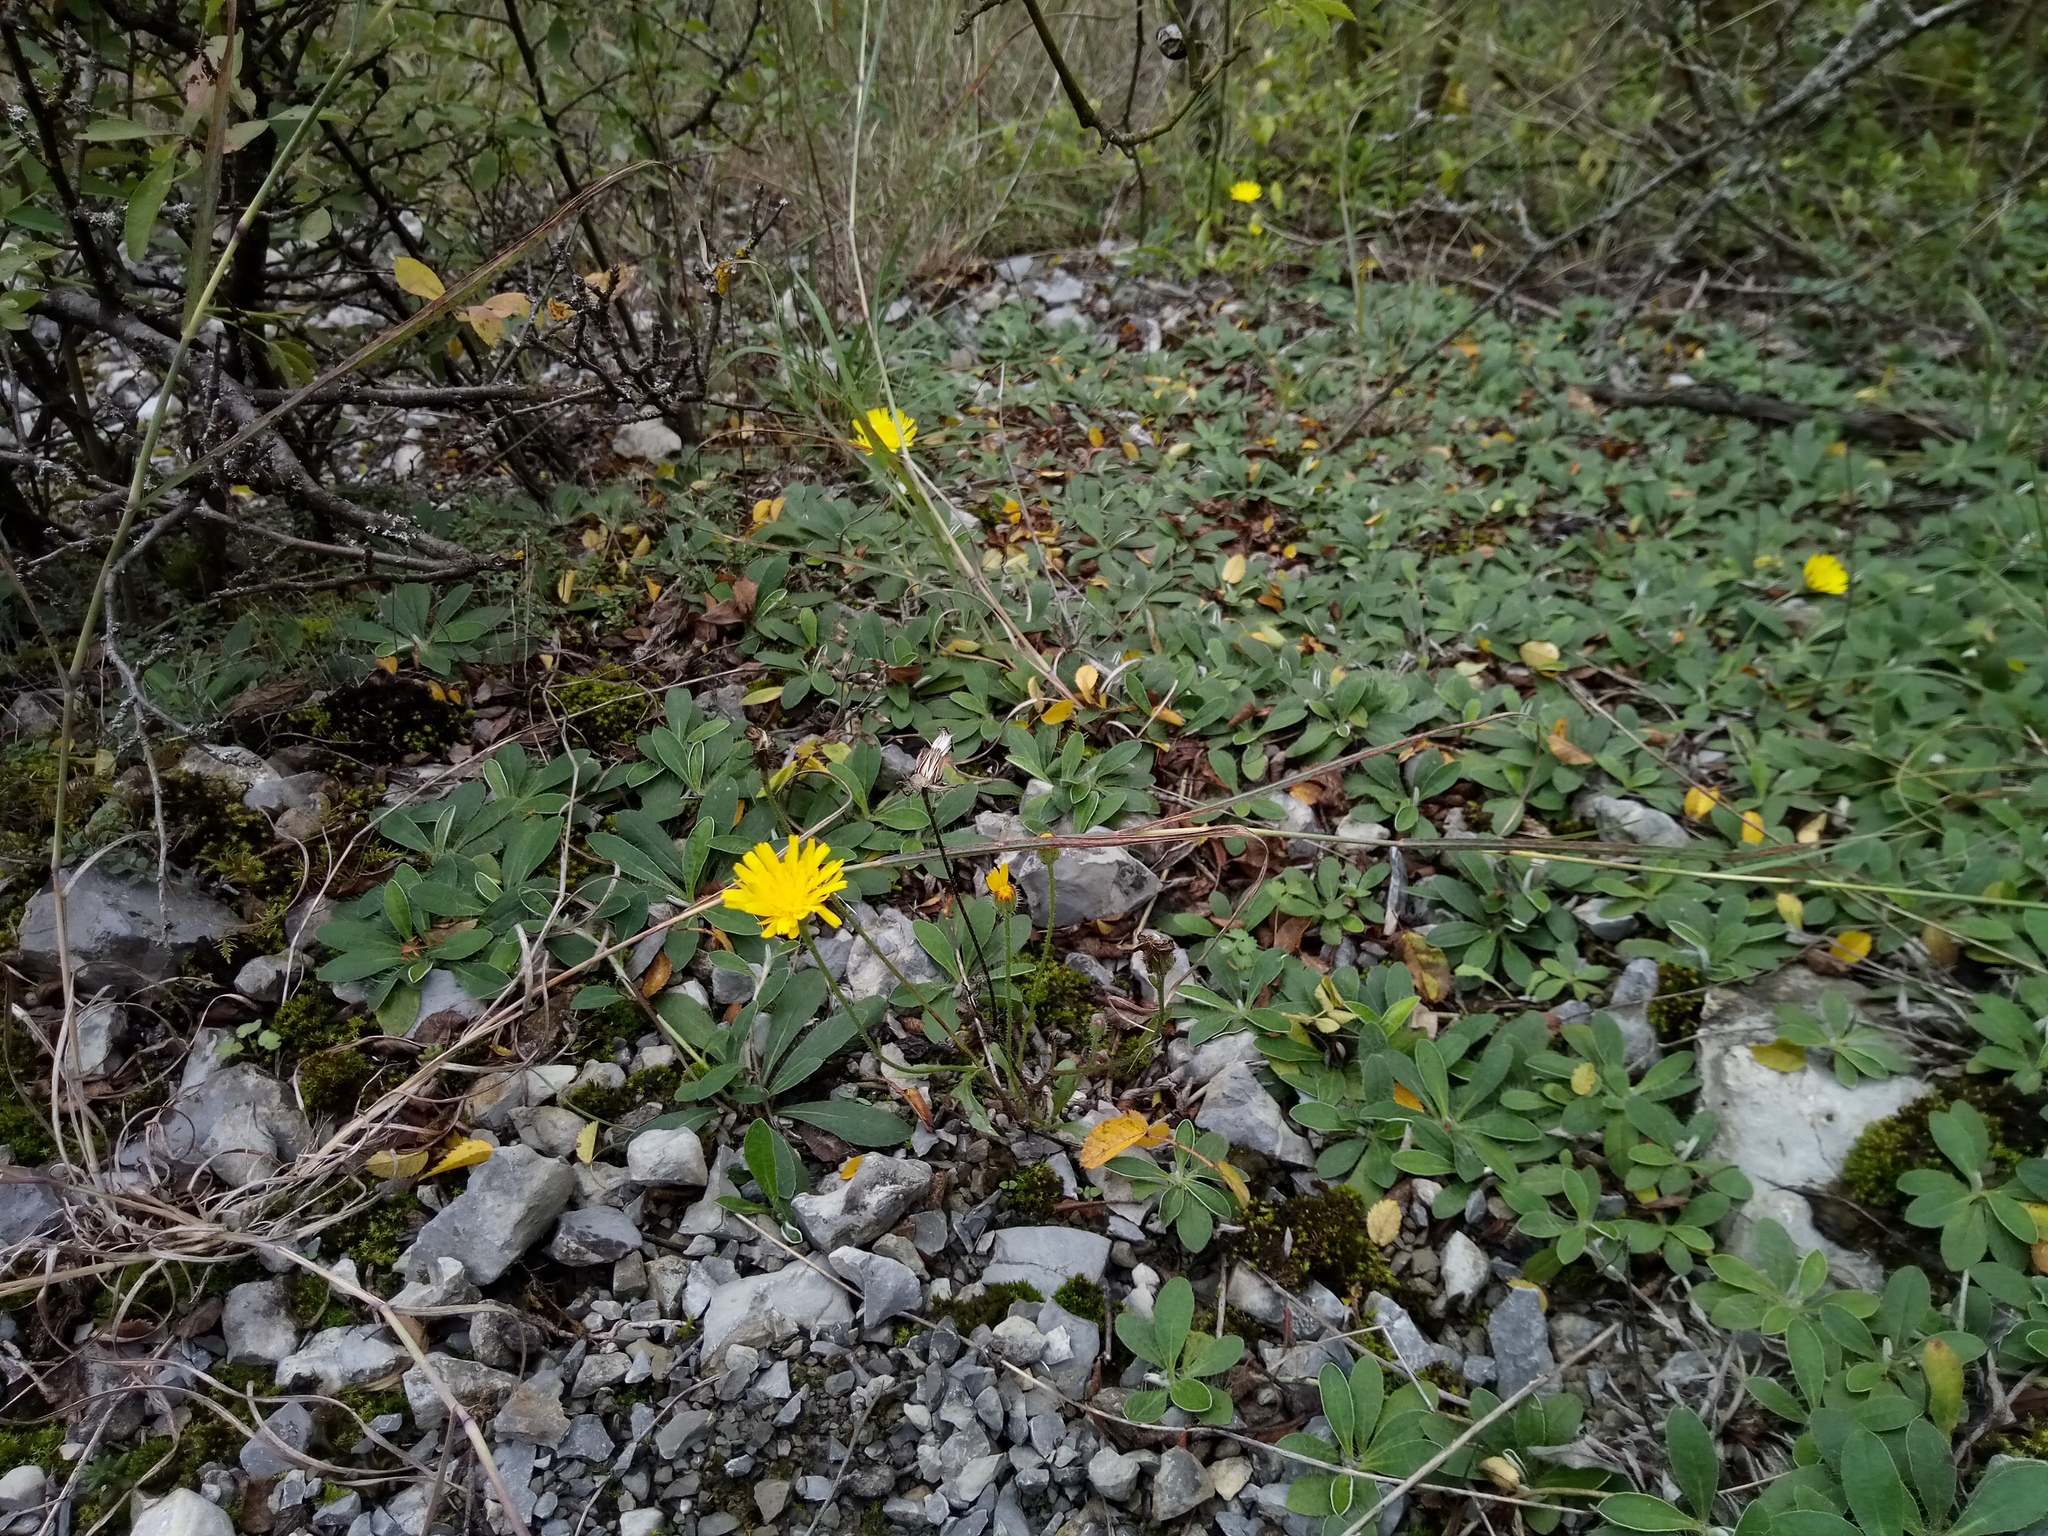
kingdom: Plantae
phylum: Tracheophyta
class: Magnoliopsida
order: Asterales
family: Asteraceae
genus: Pilosella
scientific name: Pilosella officinarum
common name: Mouse-ear hawkweed
